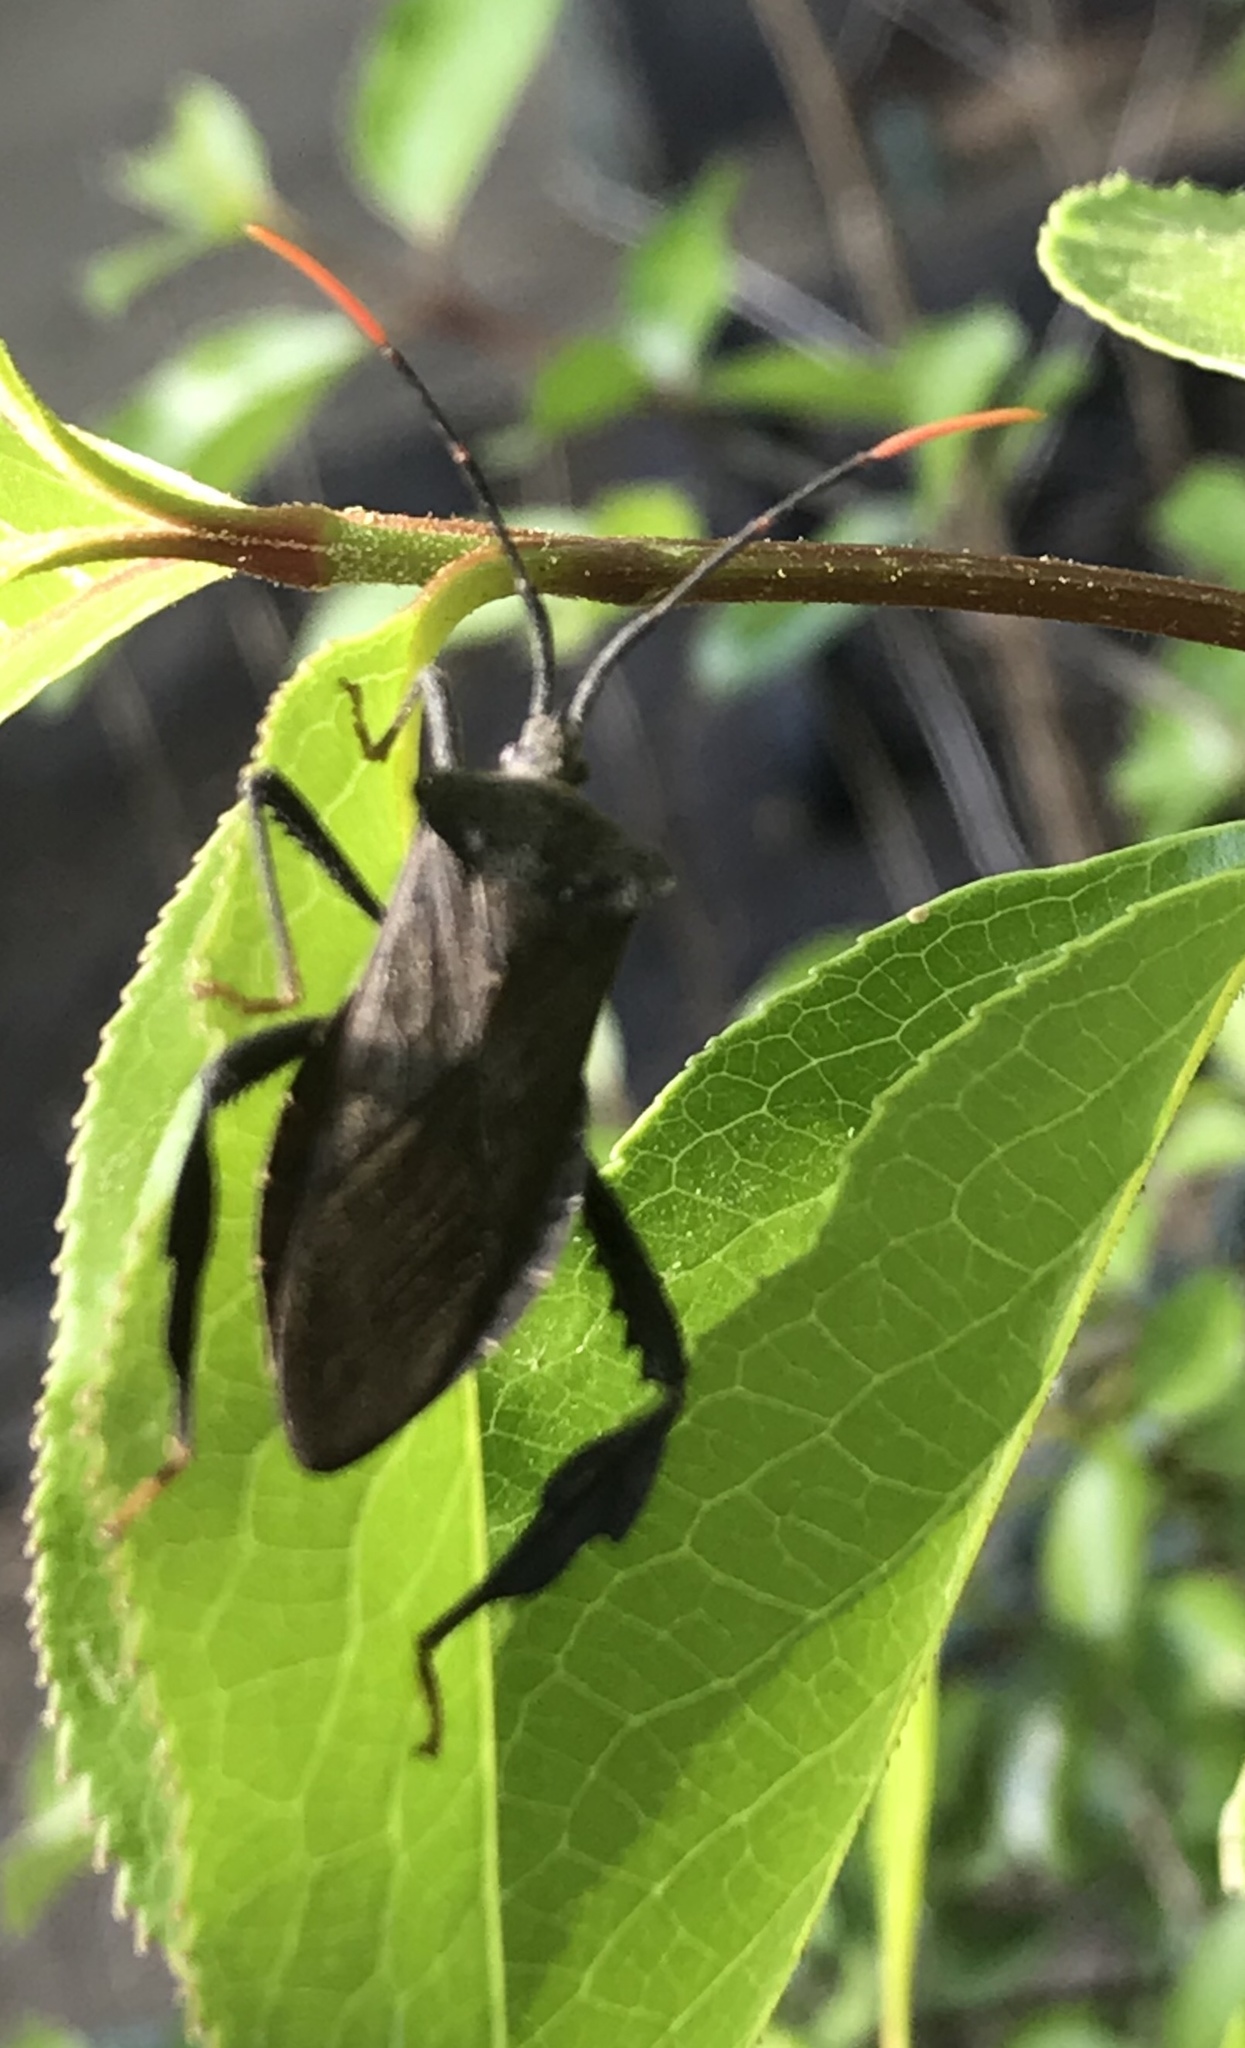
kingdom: Animalia
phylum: Arthropoda
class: Insecta
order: Hemiptera
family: Coreidae
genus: Acanthocephala
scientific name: Acanthocephala terminalis
